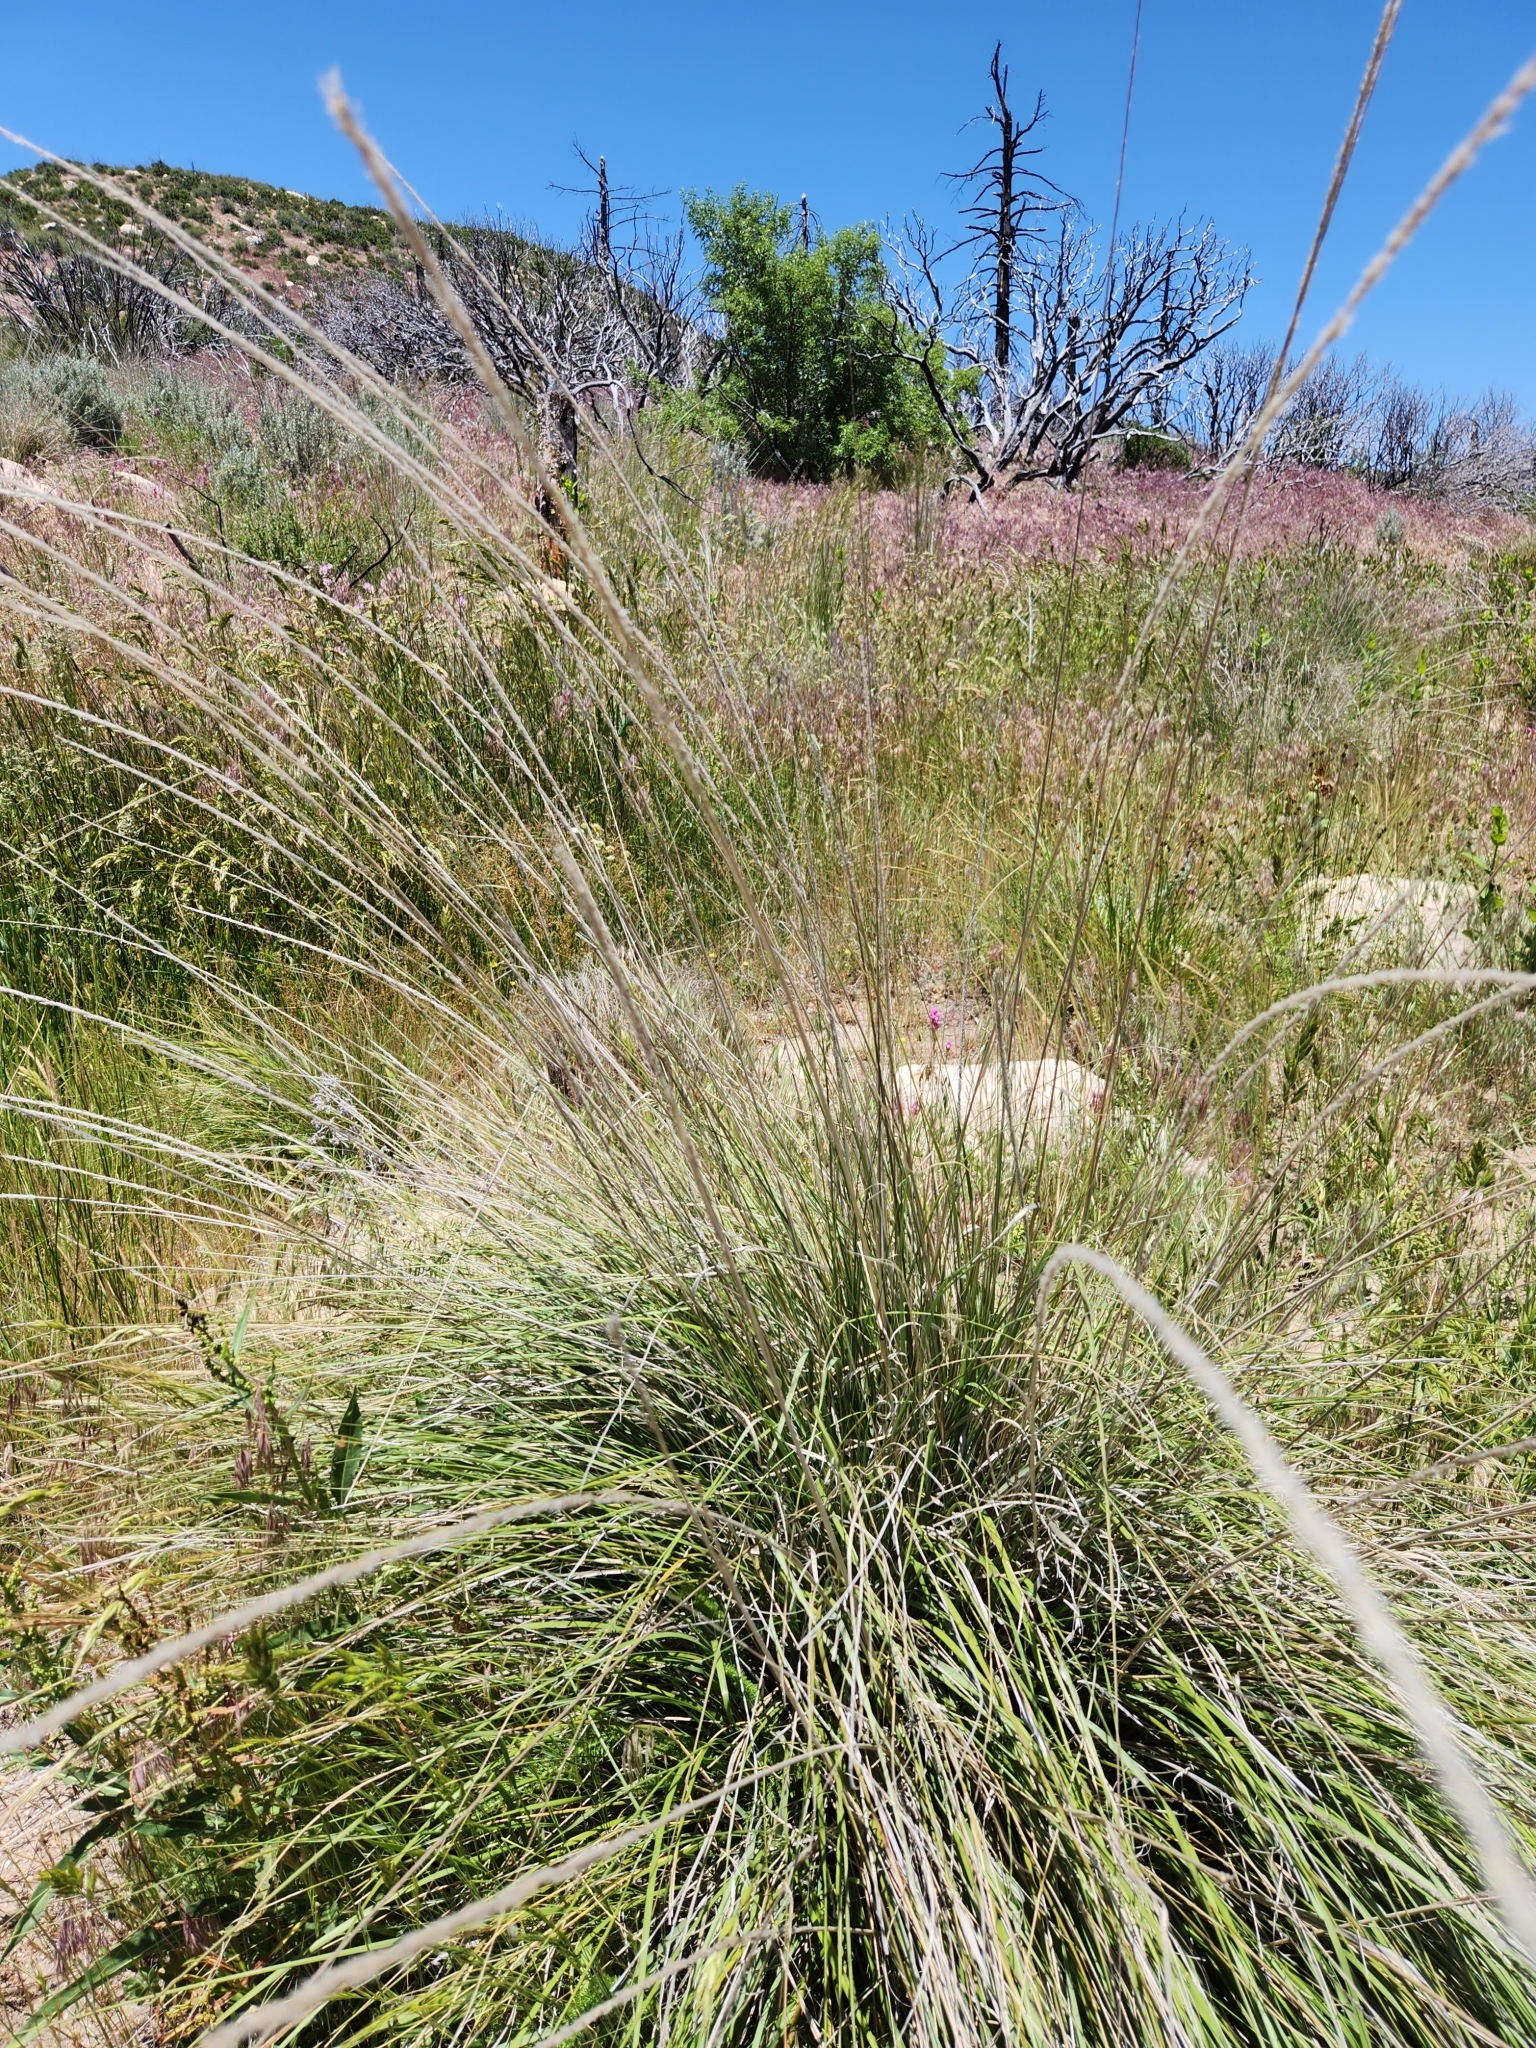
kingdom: Plantae
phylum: Tracheophyta
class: Liliopsida
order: Poales
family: Poaceae
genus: Muhlenbergia
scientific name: Muhlenbergia rigens
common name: Deer grass
